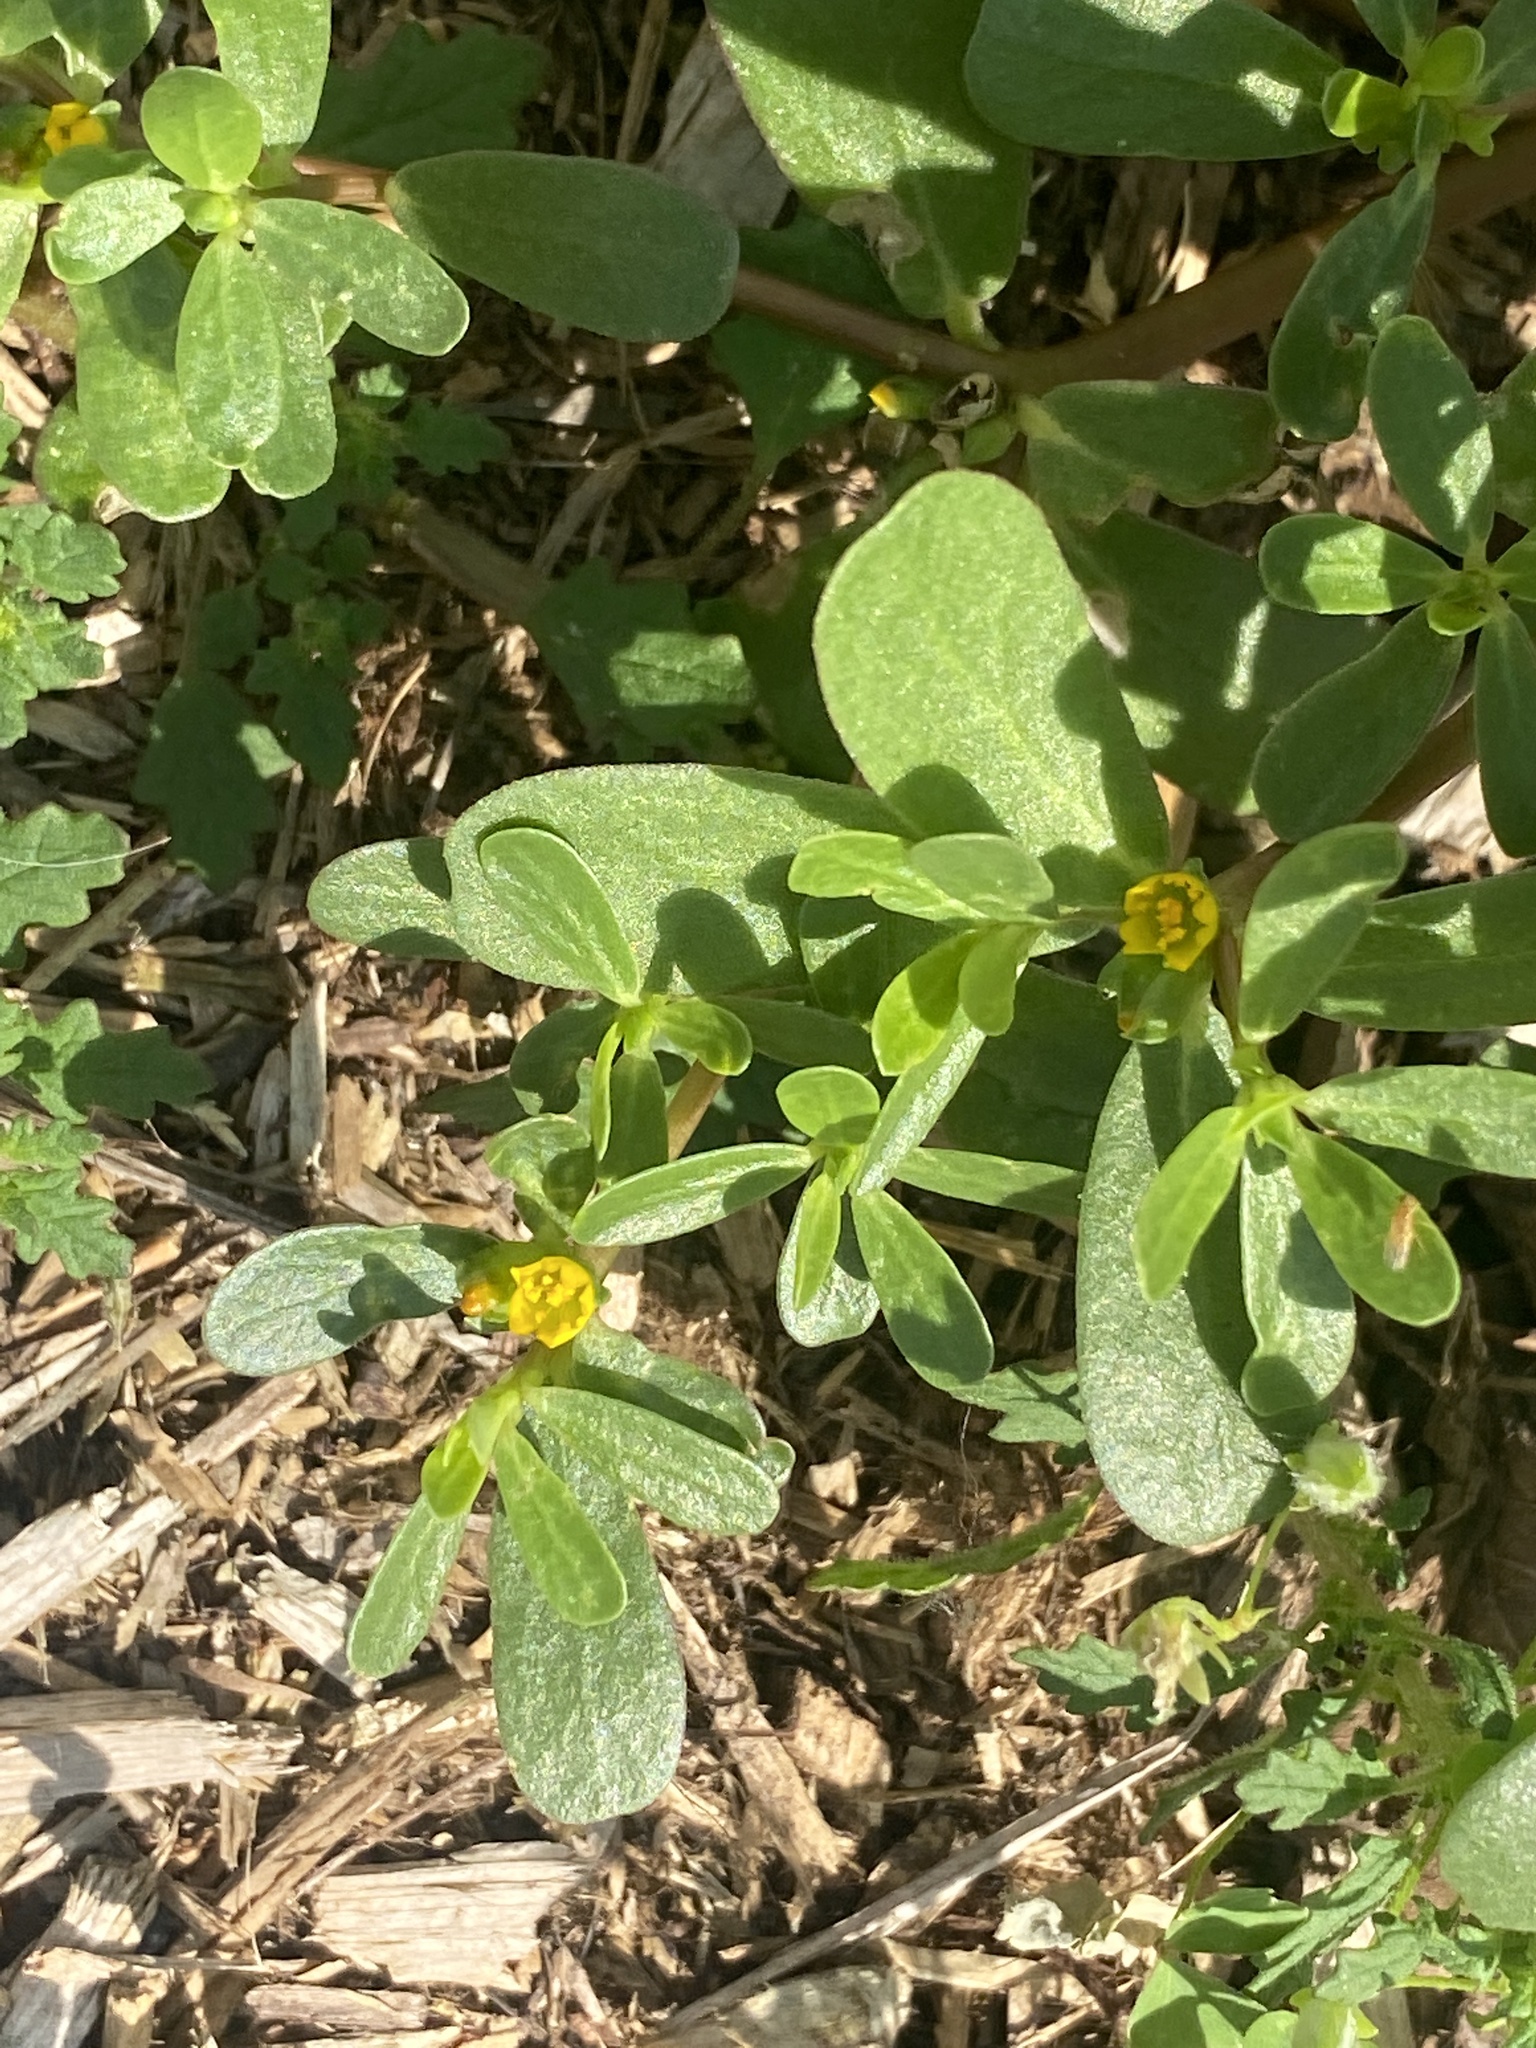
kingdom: Plantae
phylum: Tracheophyta
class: Magnoliopsida
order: Caryophyllales
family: Portulacaceae
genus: Portulaca
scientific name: Portulaca oleracea
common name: Common purslane
